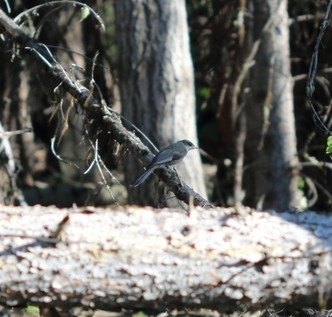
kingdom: Animalia
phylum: Chordata
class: Aves
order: Passeriformes
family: Corvidae
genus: Perisoreus
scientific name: Perisoreus canadensis
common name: Gray jay
